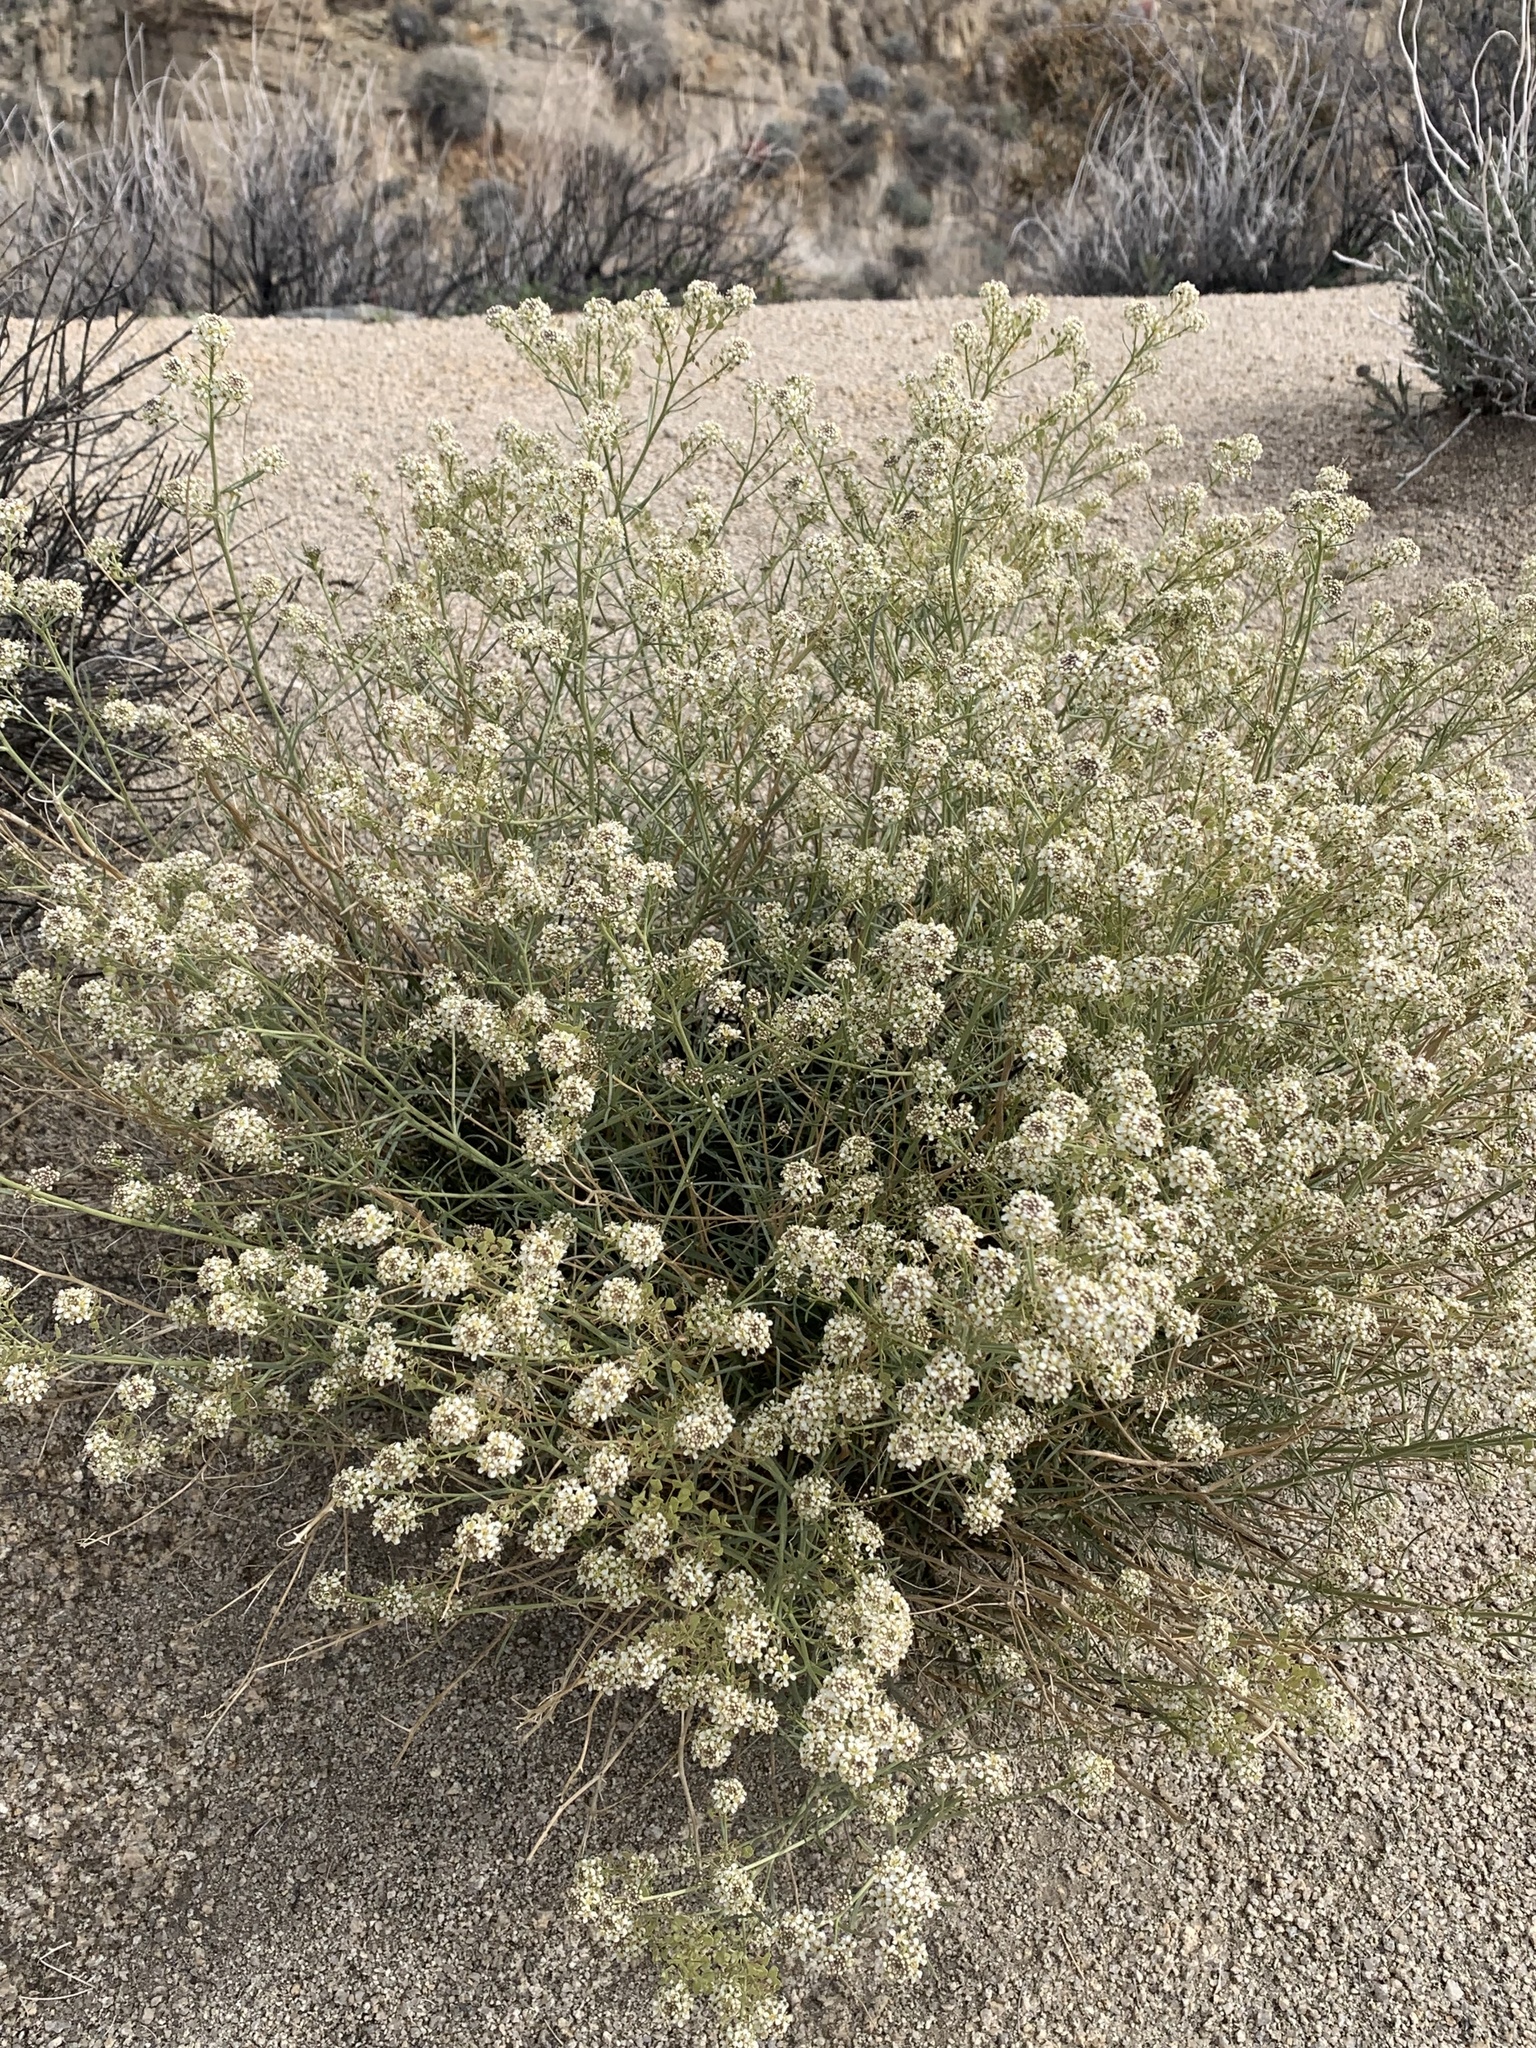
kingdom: Plantae
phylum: Tracheophyta
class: Magnoliopsida
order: Brassicales
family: Brassicaceae
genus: Lepidium
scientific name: Lepidium fremontii
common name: Fremont's pepperwort
